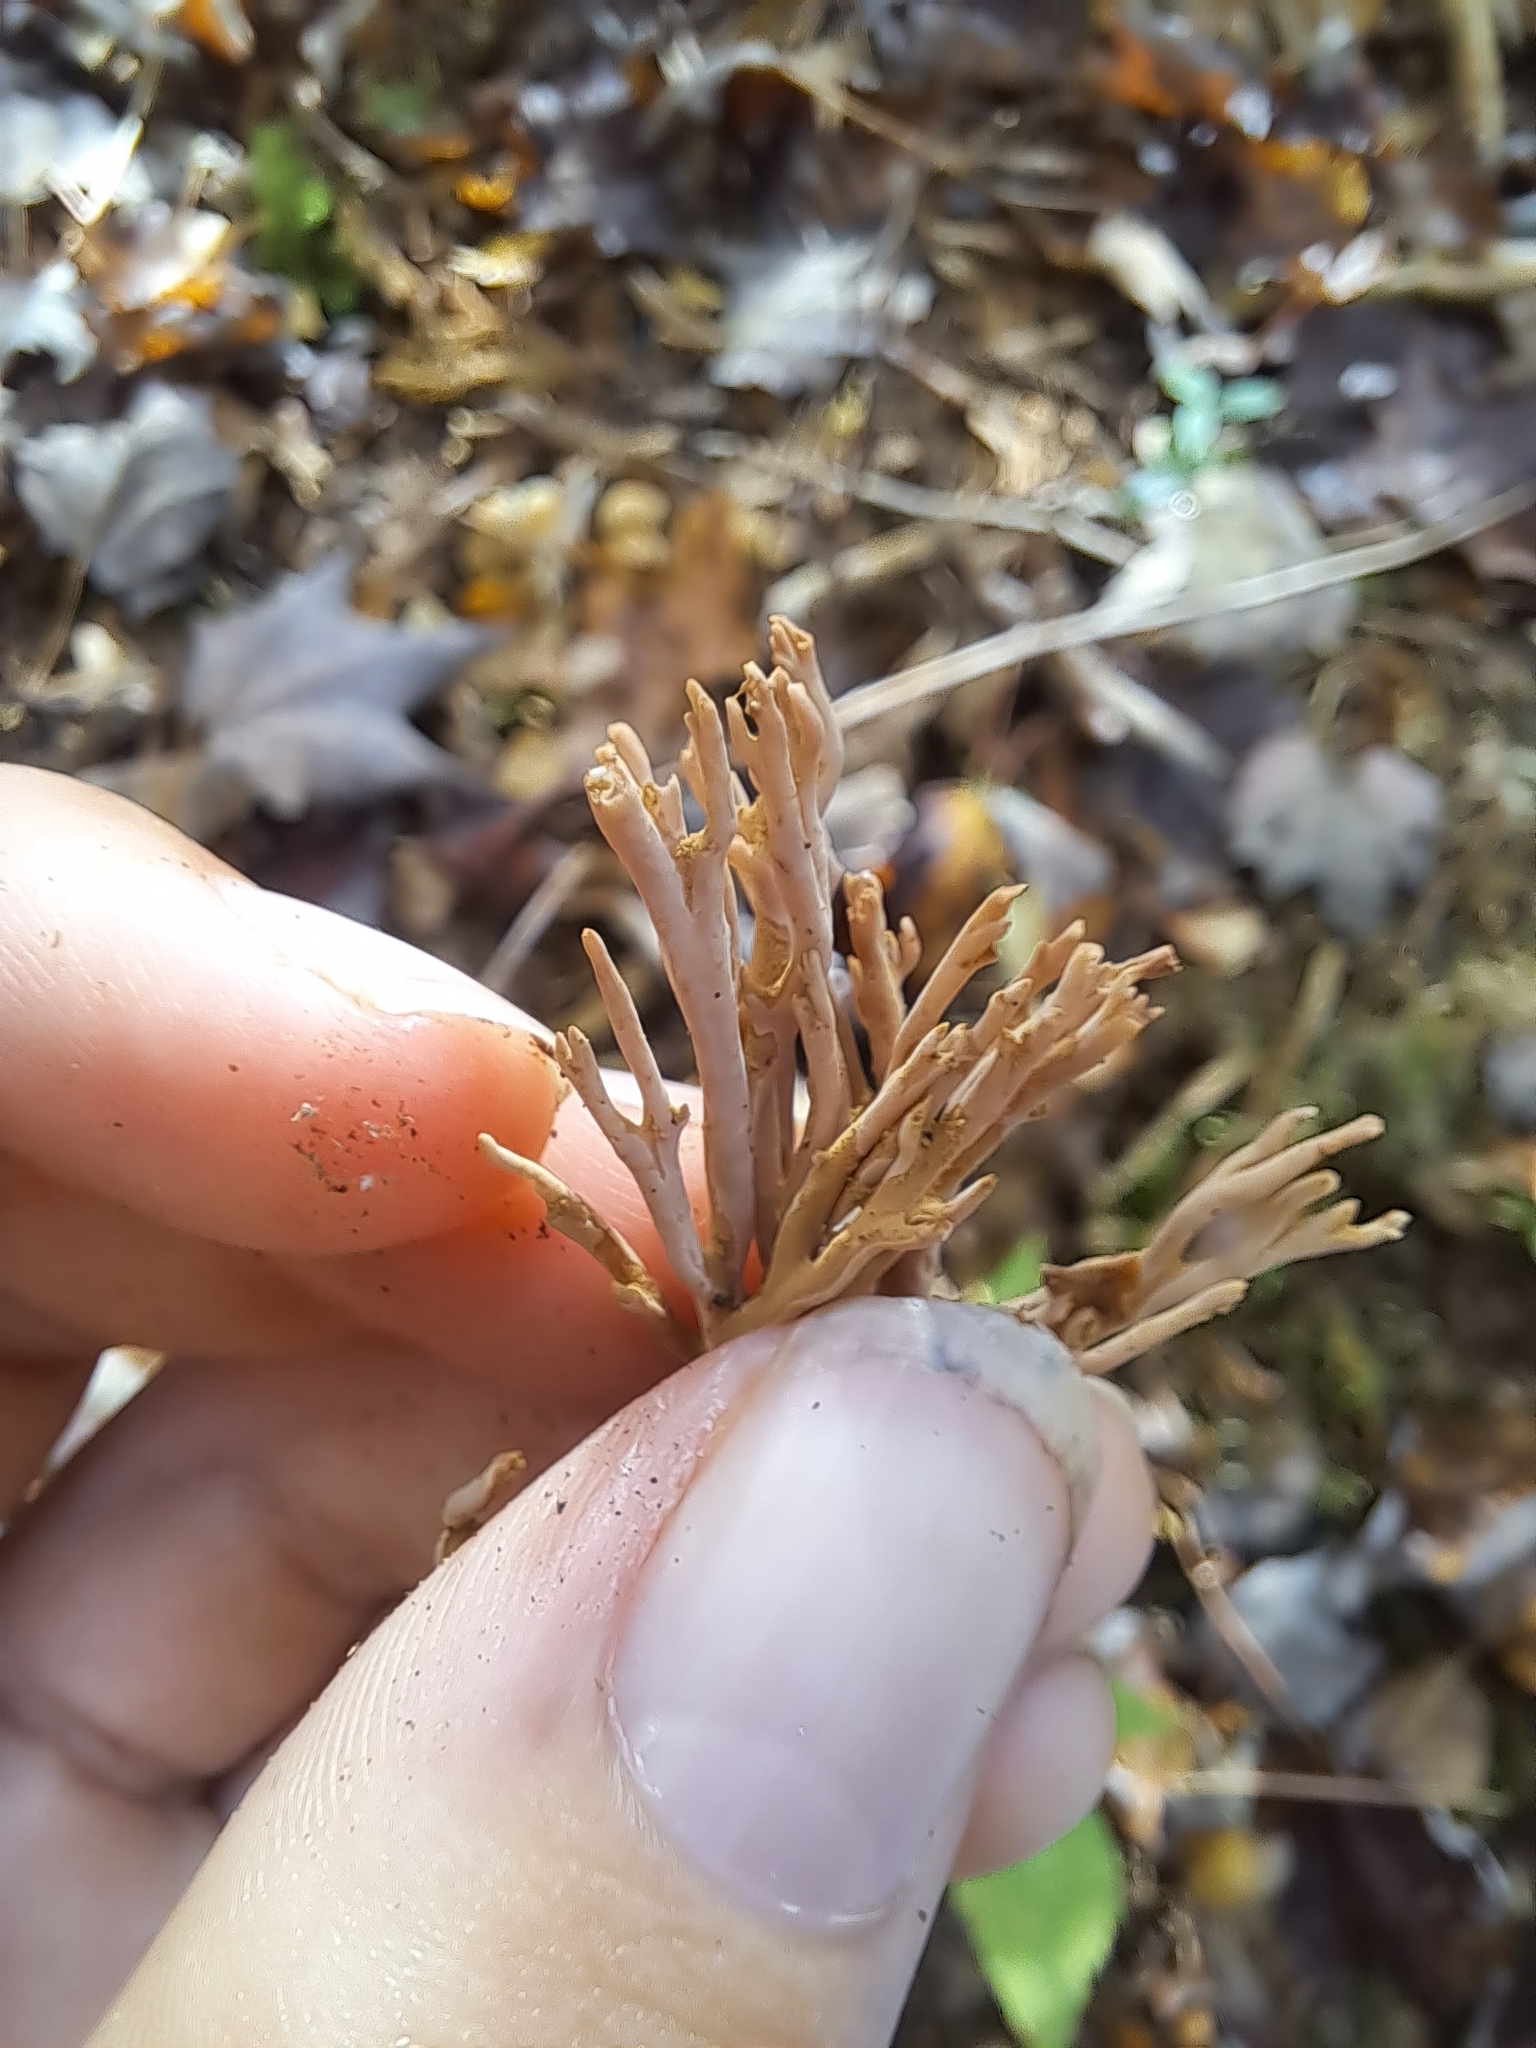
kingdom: Fungi
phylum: Basidiomycota
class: Agaricomycetes
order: Cantharellales
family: Hydnaceae
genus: Clavulina
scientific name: Clavulina cinerea
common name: Grey coral
